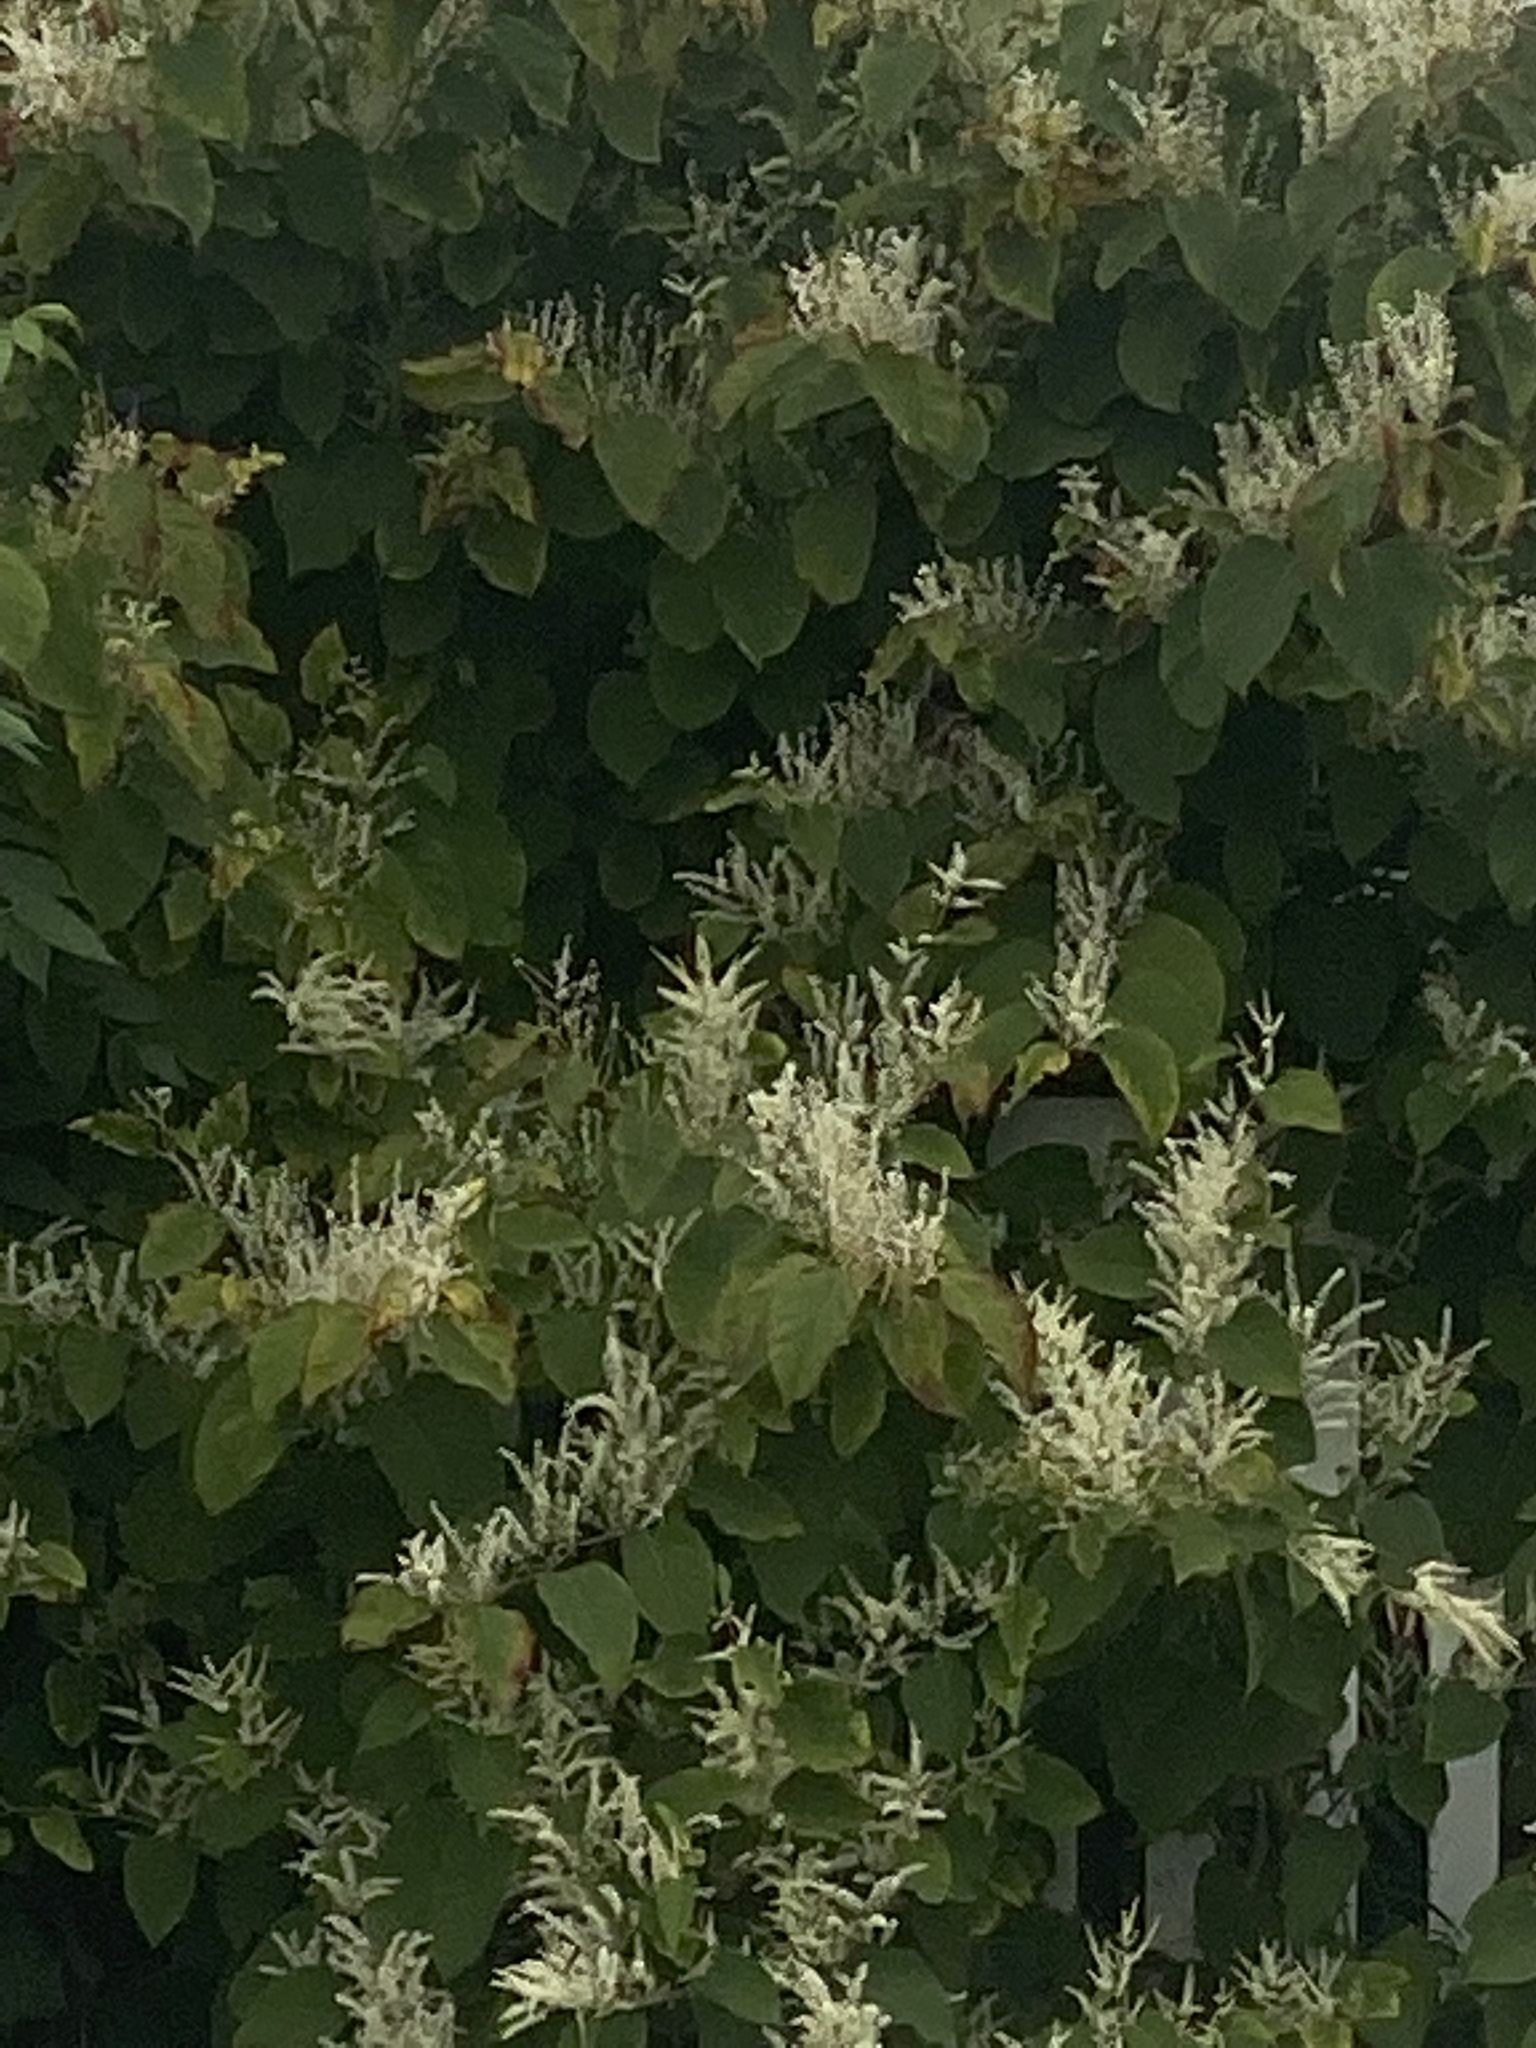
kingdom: Plantae
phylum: Tracheophyta
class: Magnoliopsida
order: Caryophyllales
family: Polygonaceae
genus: Reynoutria
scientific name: Reynoutria japonica
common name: Japanese knotweed
